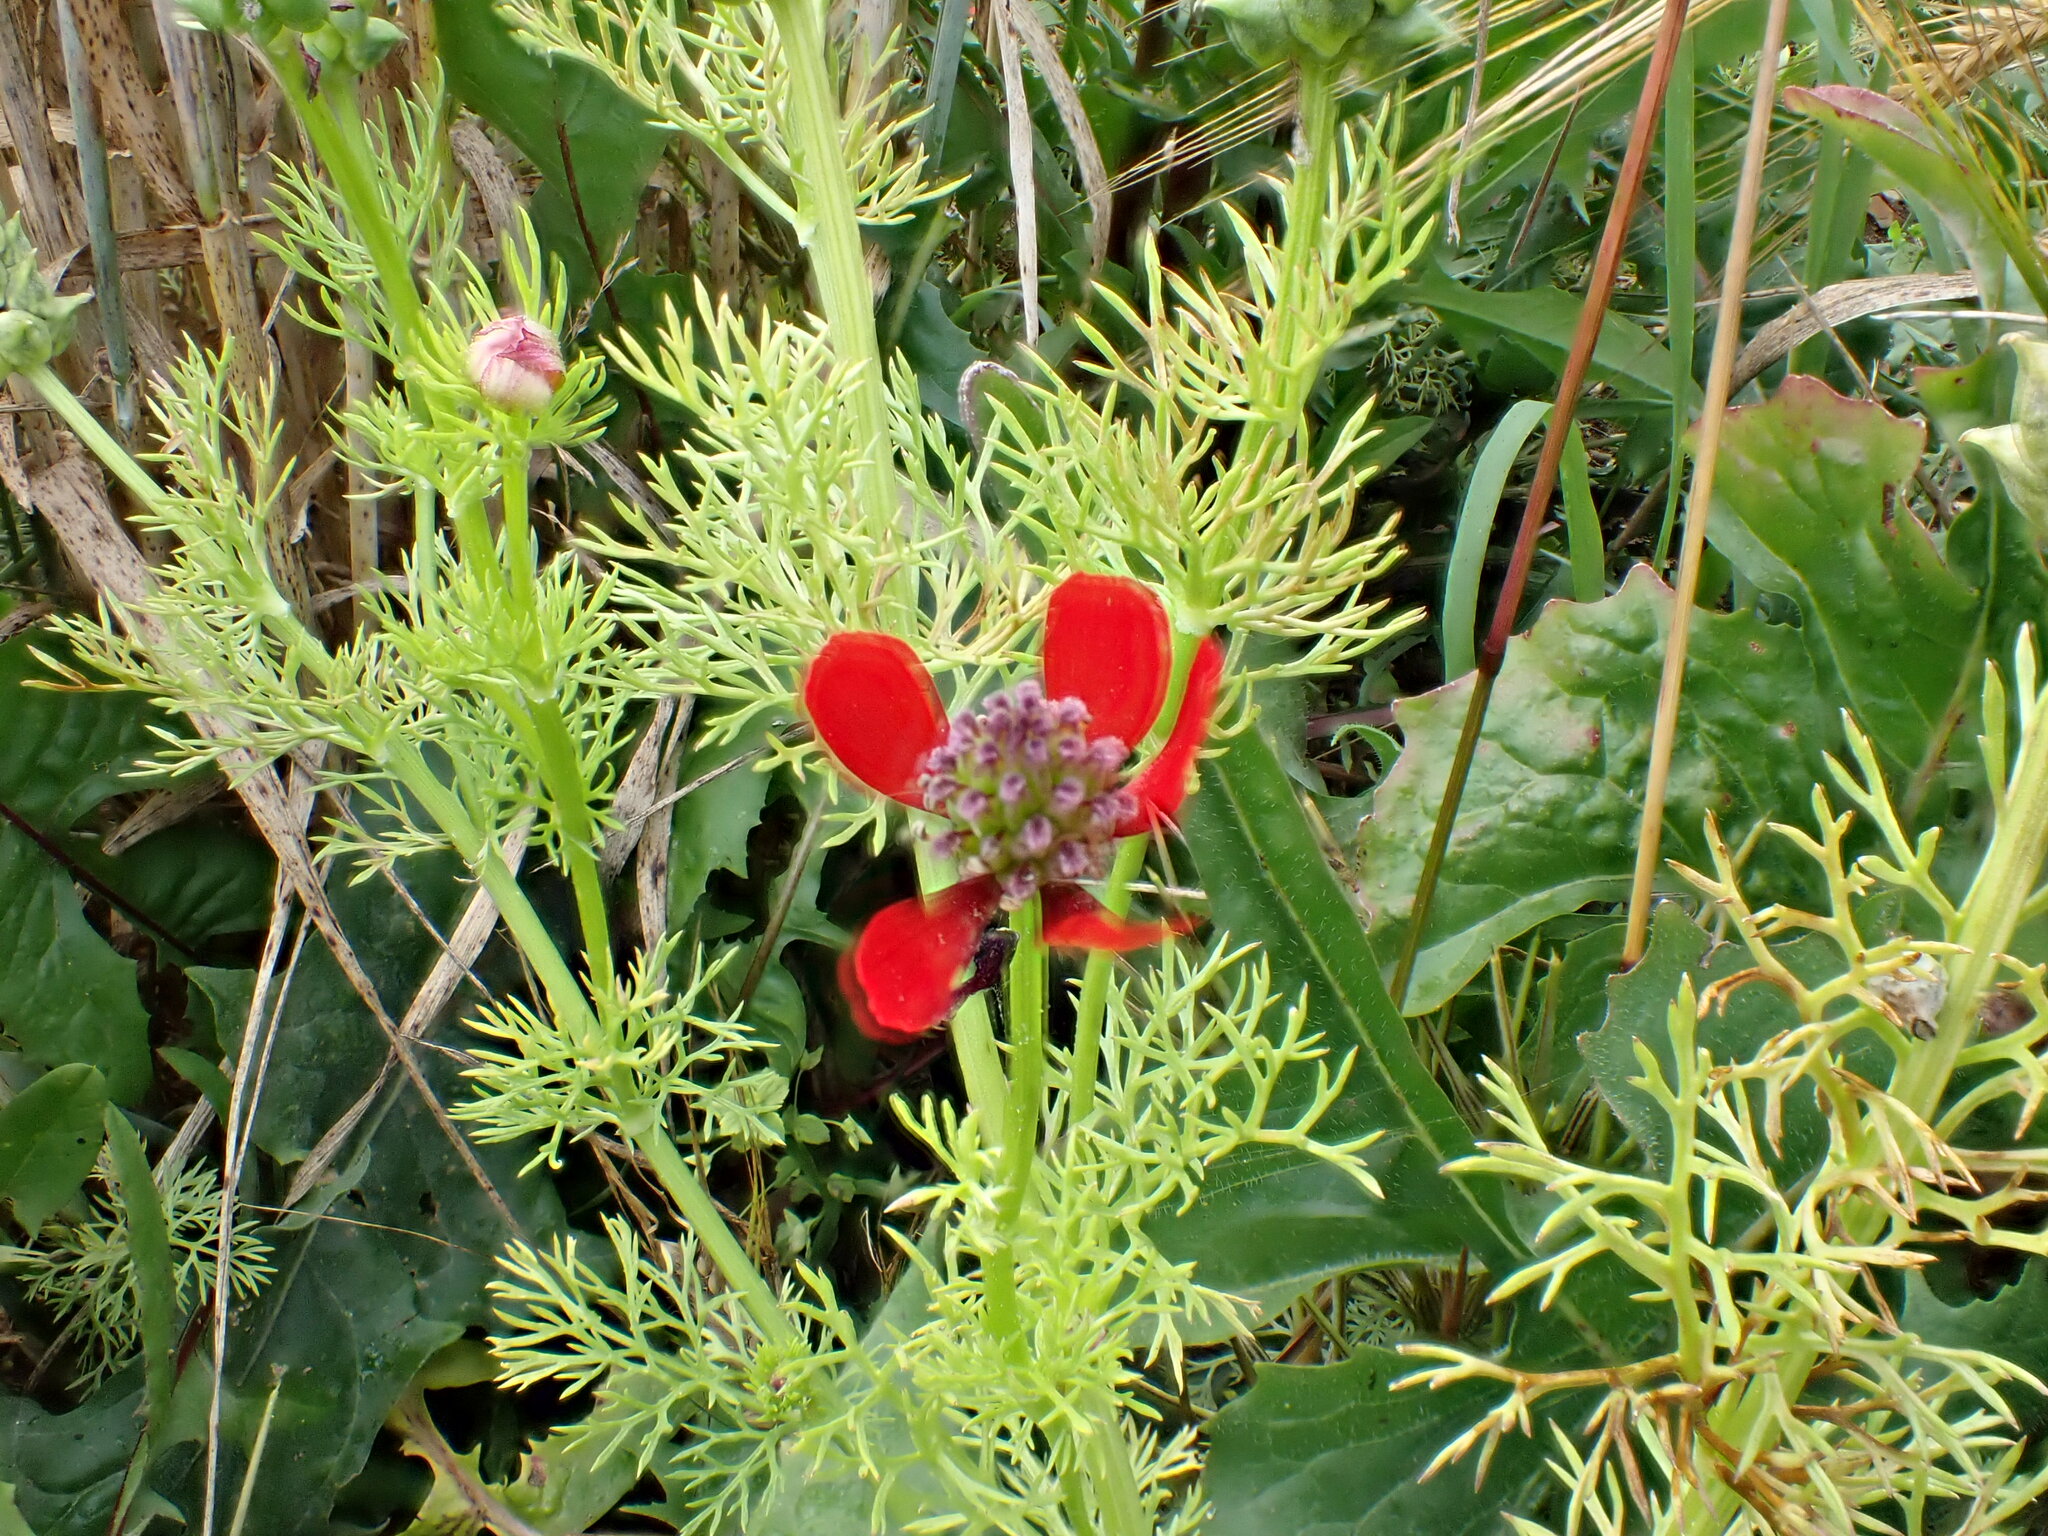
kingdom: Plantae
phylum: Tracheophyta
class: Magnoliopsida
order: Ranunculales
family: Ranunculaceae
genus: Adonis
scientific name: Adonis annua
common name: Pheasant's-eye
